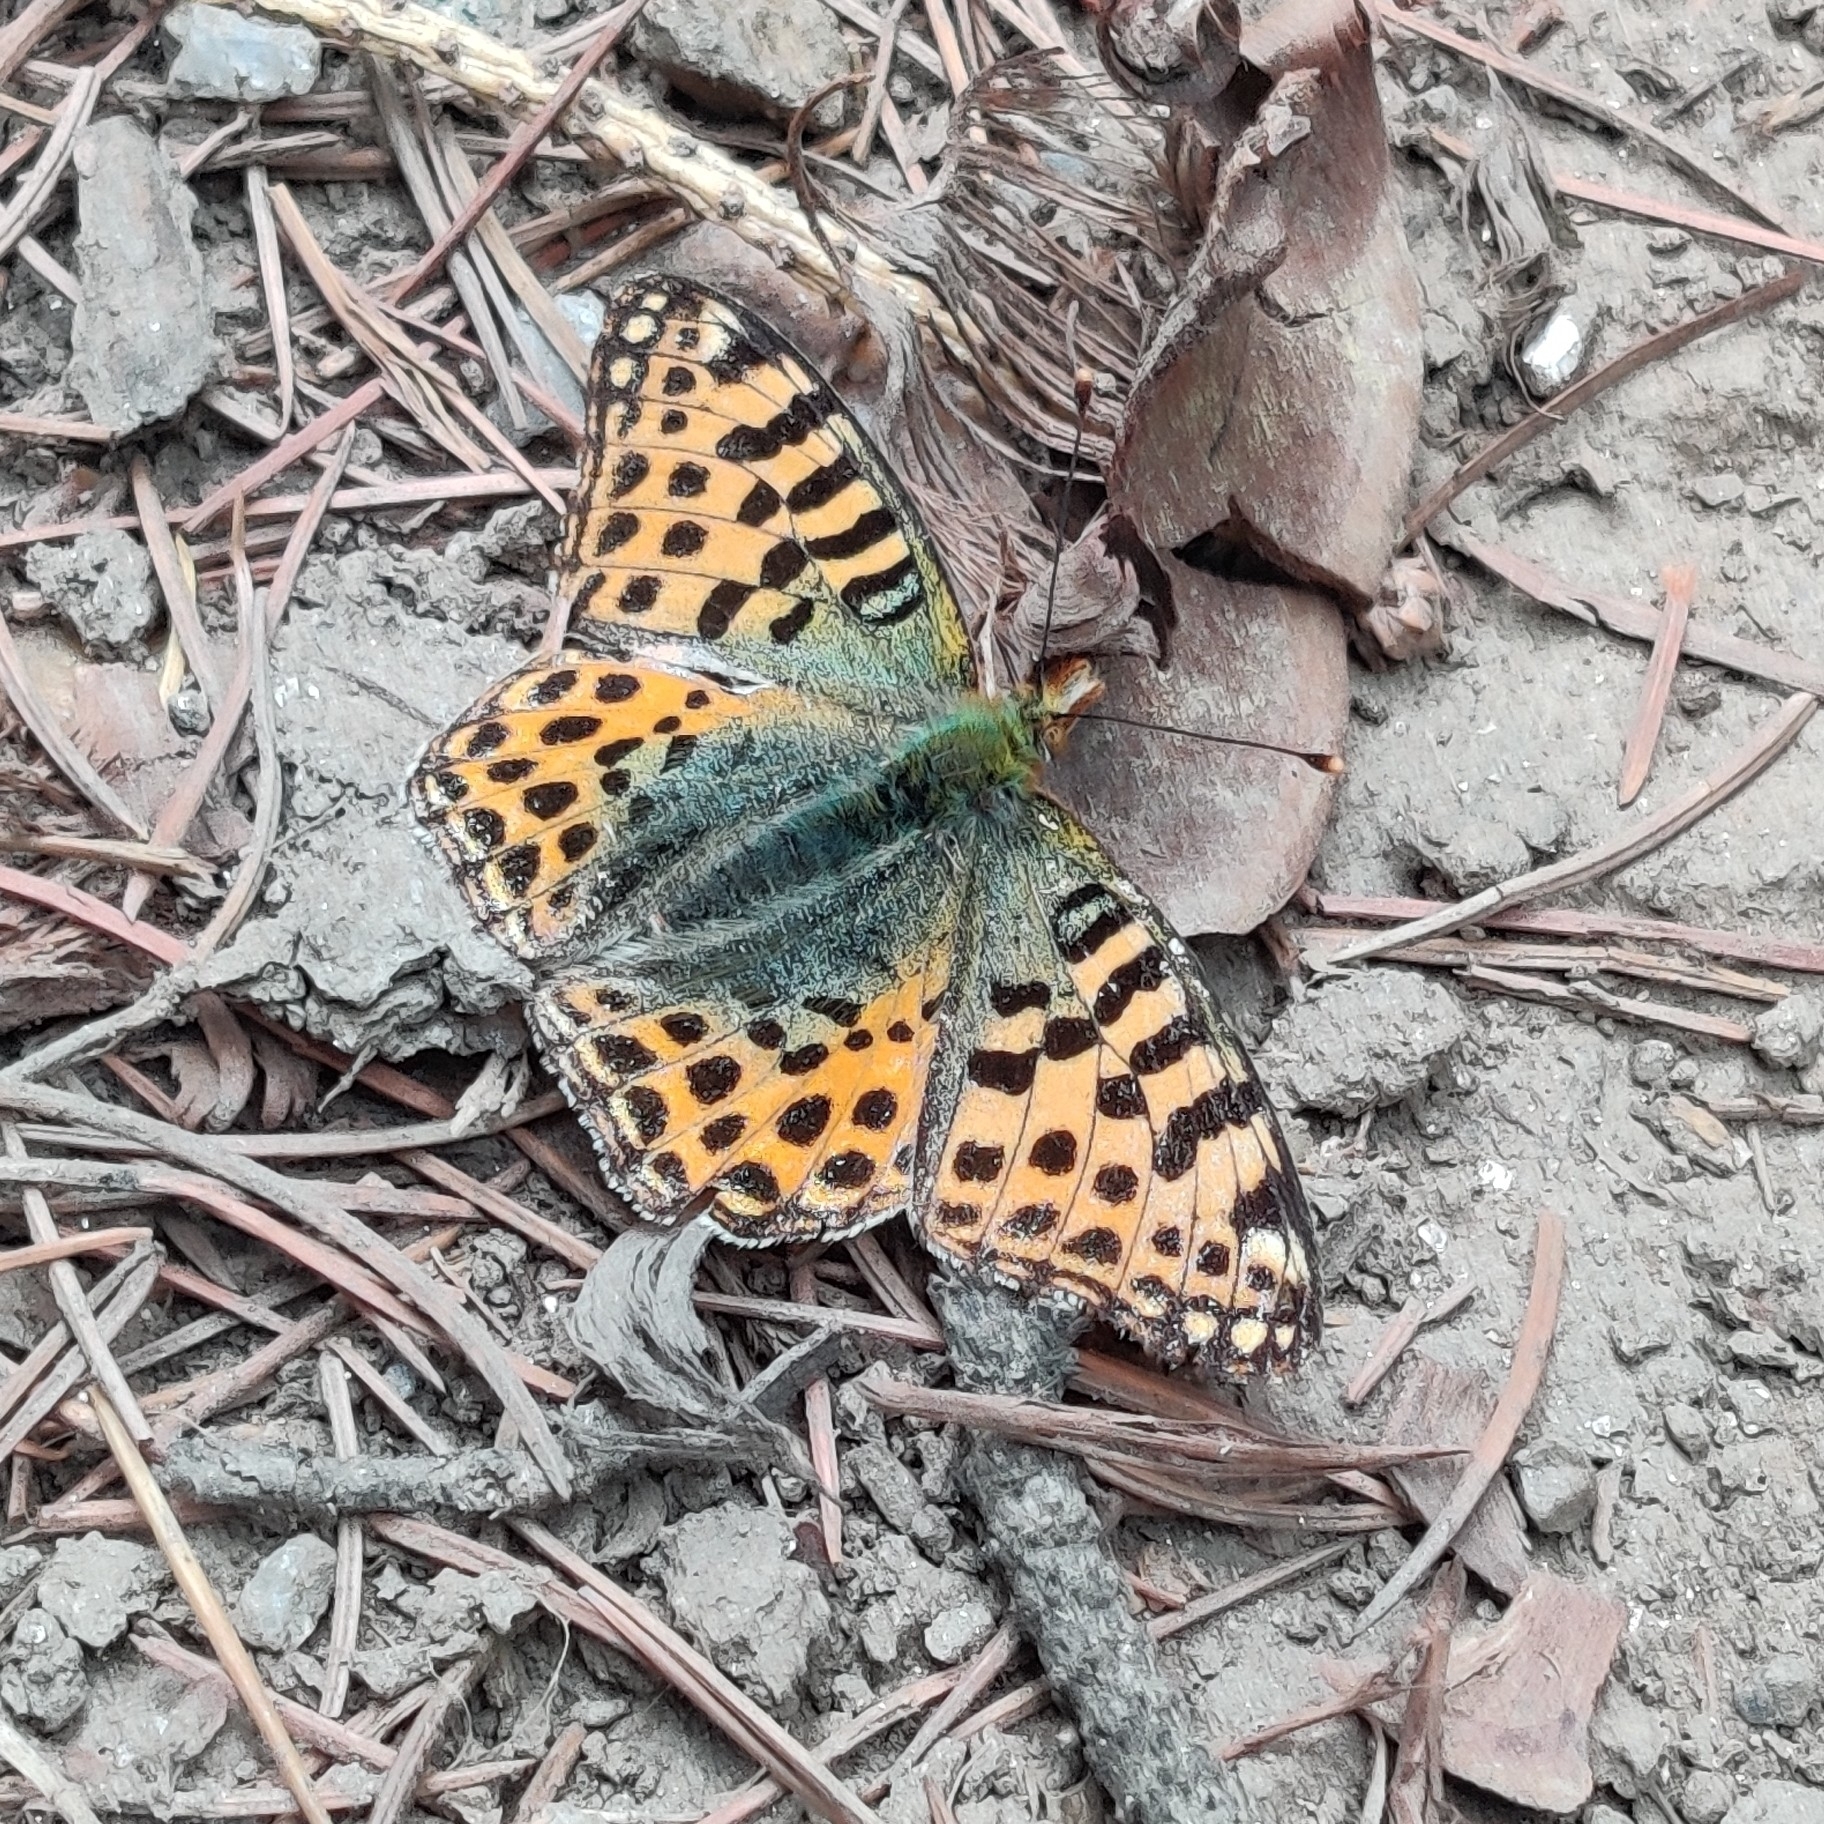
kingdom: Animalia
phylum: Arthropoda
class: Insecta
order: Lepidoptera
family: Nymphalidae
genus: Issoria
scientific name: Issoria
